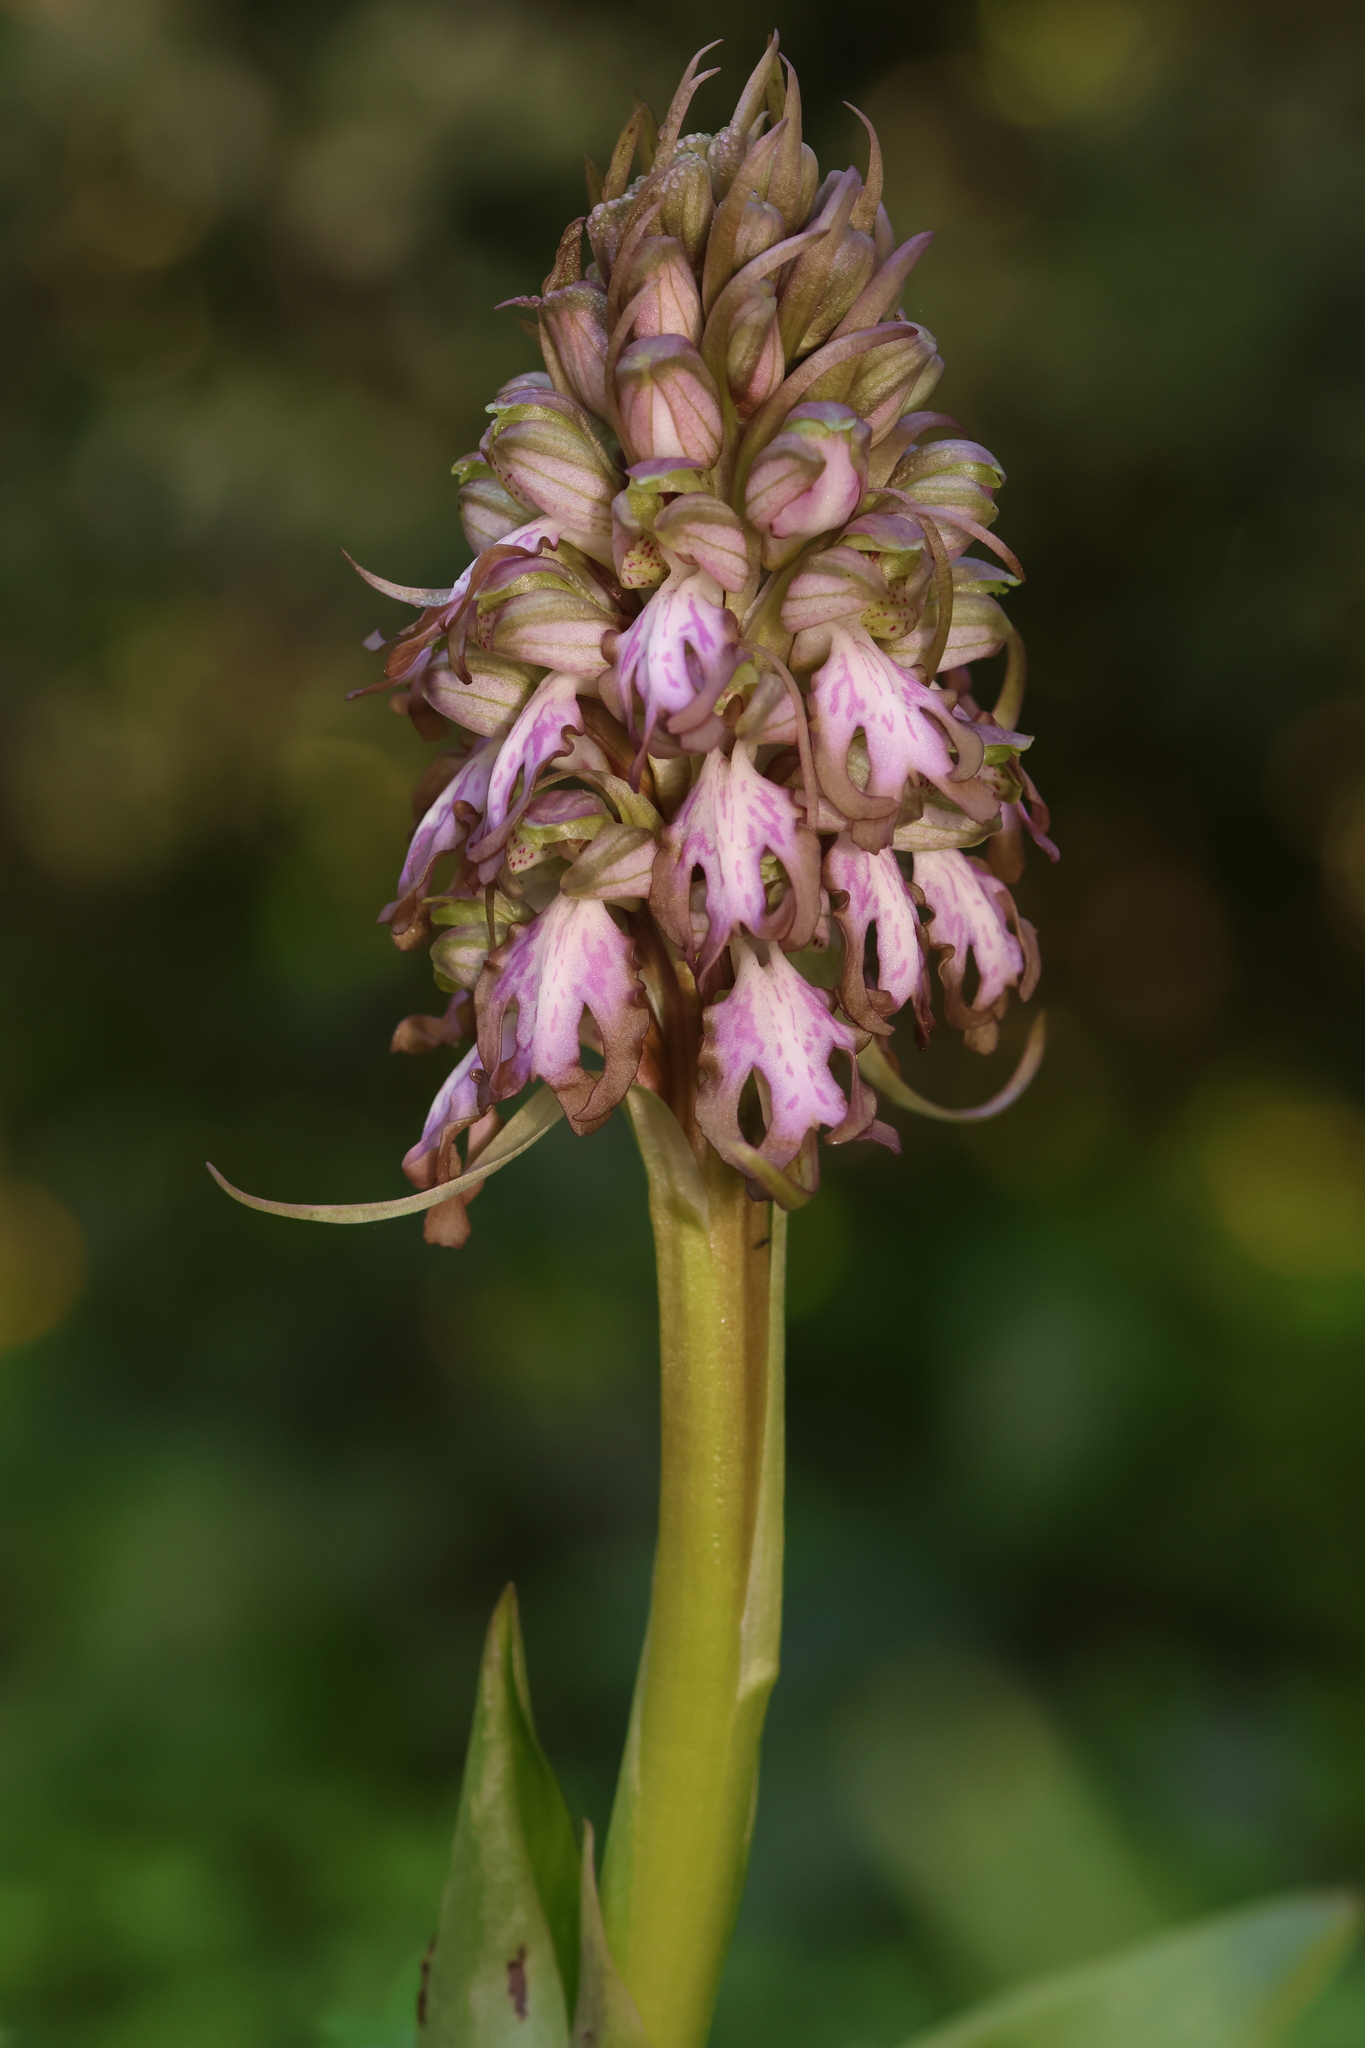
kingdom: Plantae
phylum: Tracheophyta
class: Liliopsida
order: Asparagales
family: Orchidaceae
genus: Himantoglossum
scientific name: Himantoglossum robertianum
